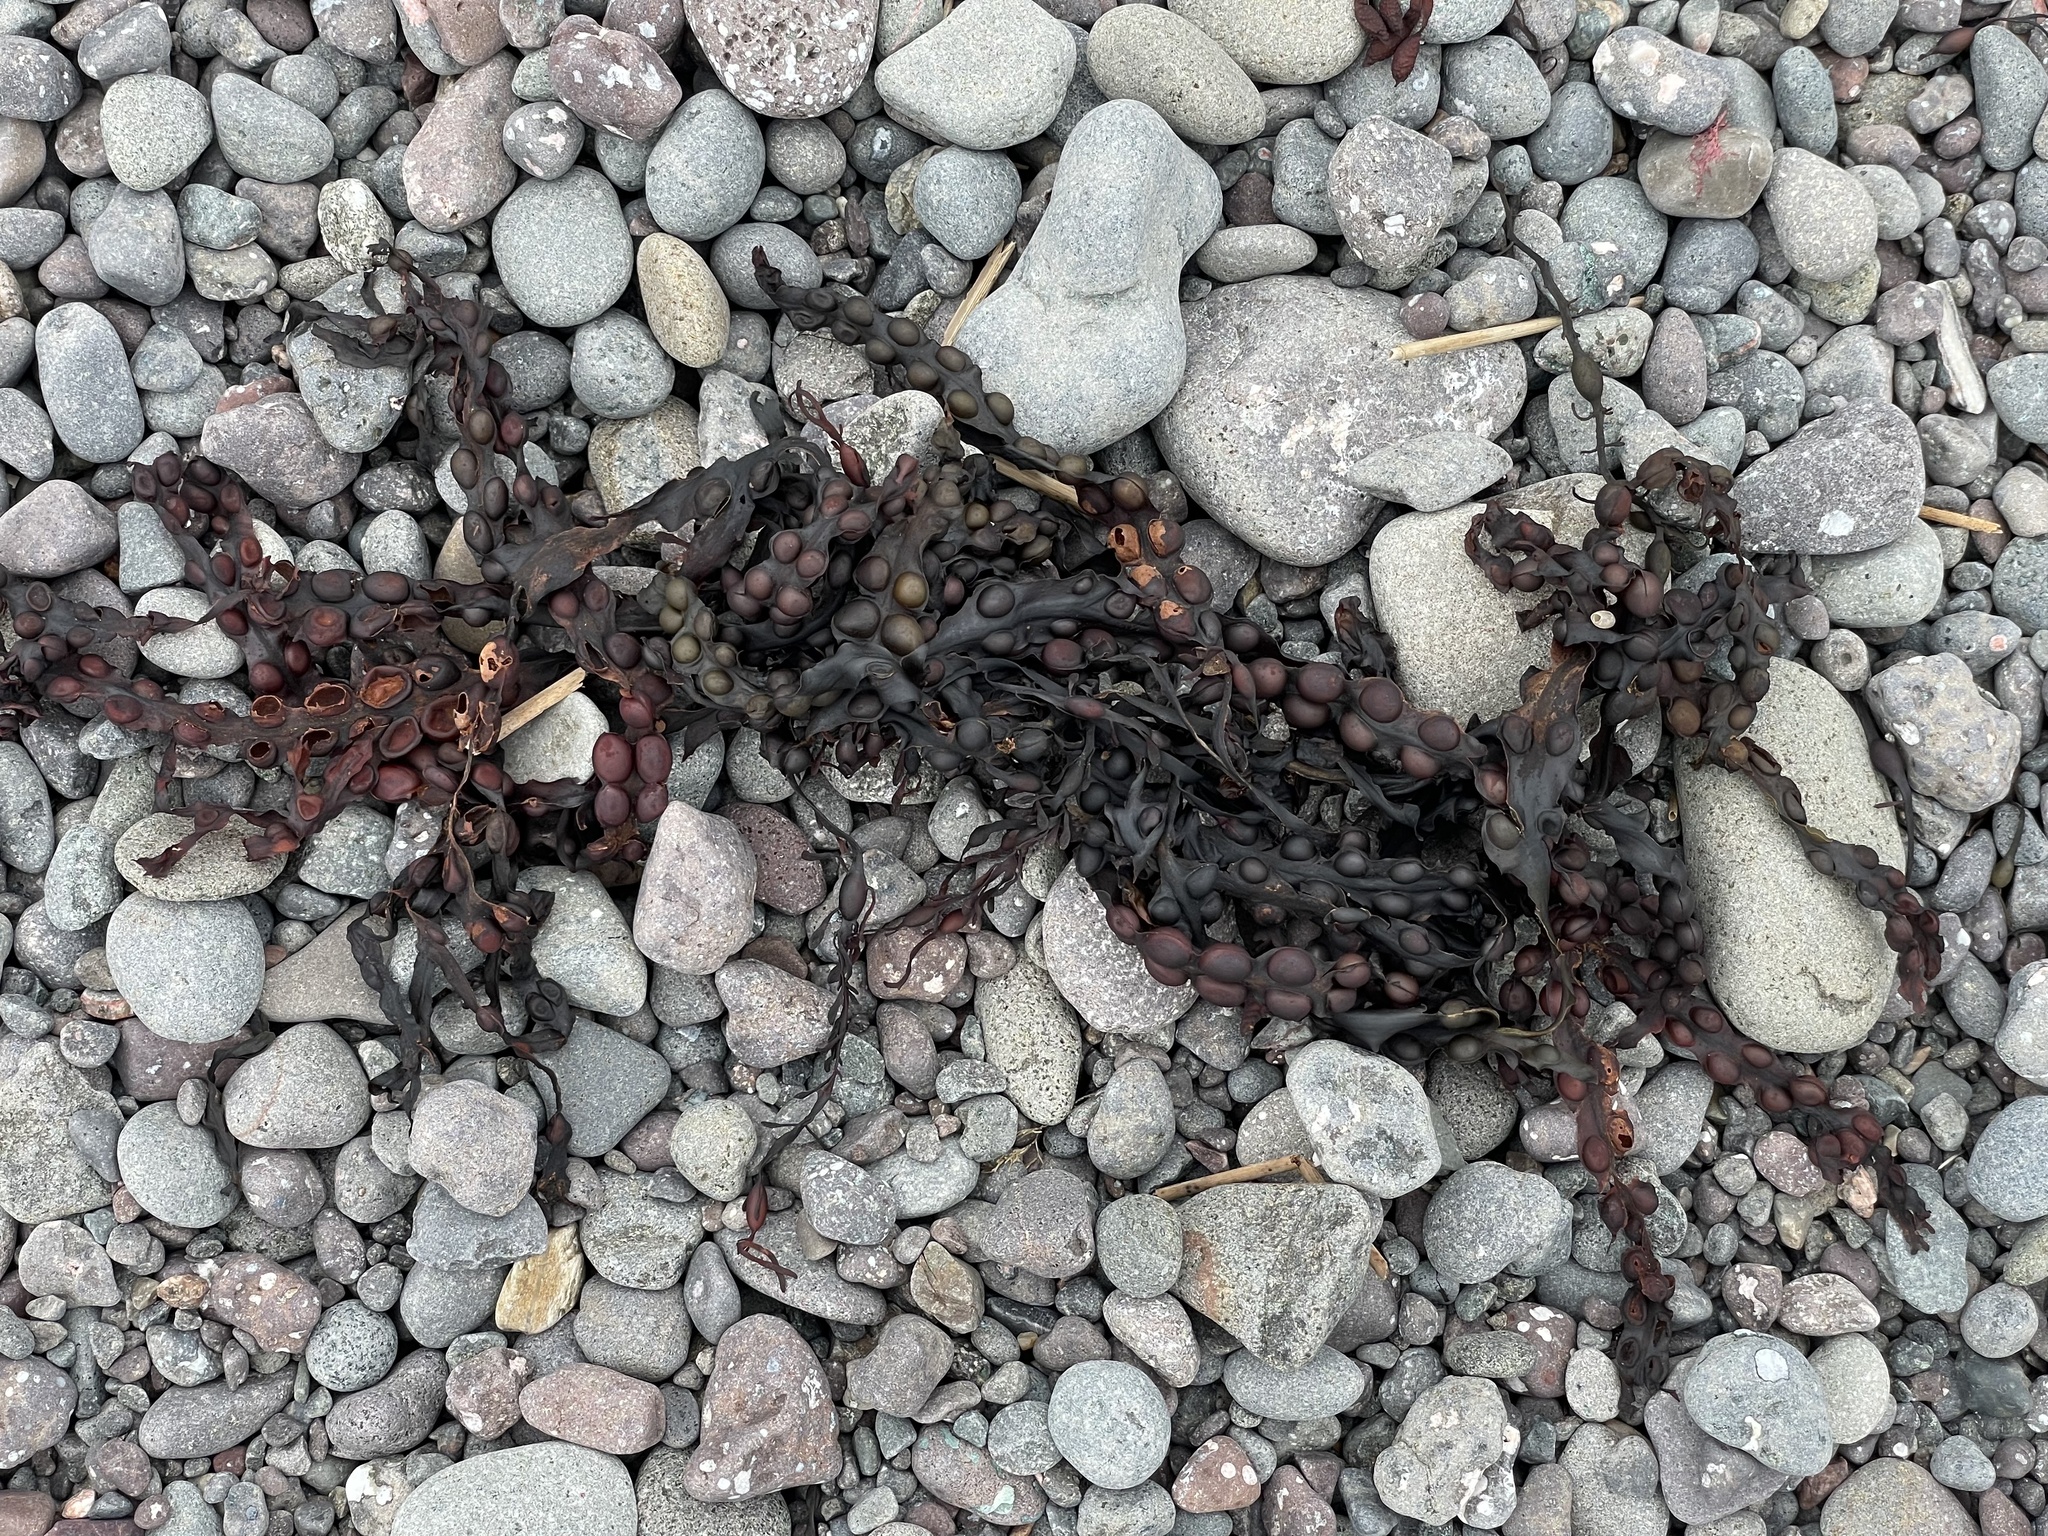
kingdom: Chromista
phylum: Ochrophyta
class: Phaeophyceae
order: Fucales
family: Fucaceae
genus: Fucus
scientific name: Fucus vesiculosus
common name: Bladder wrack
